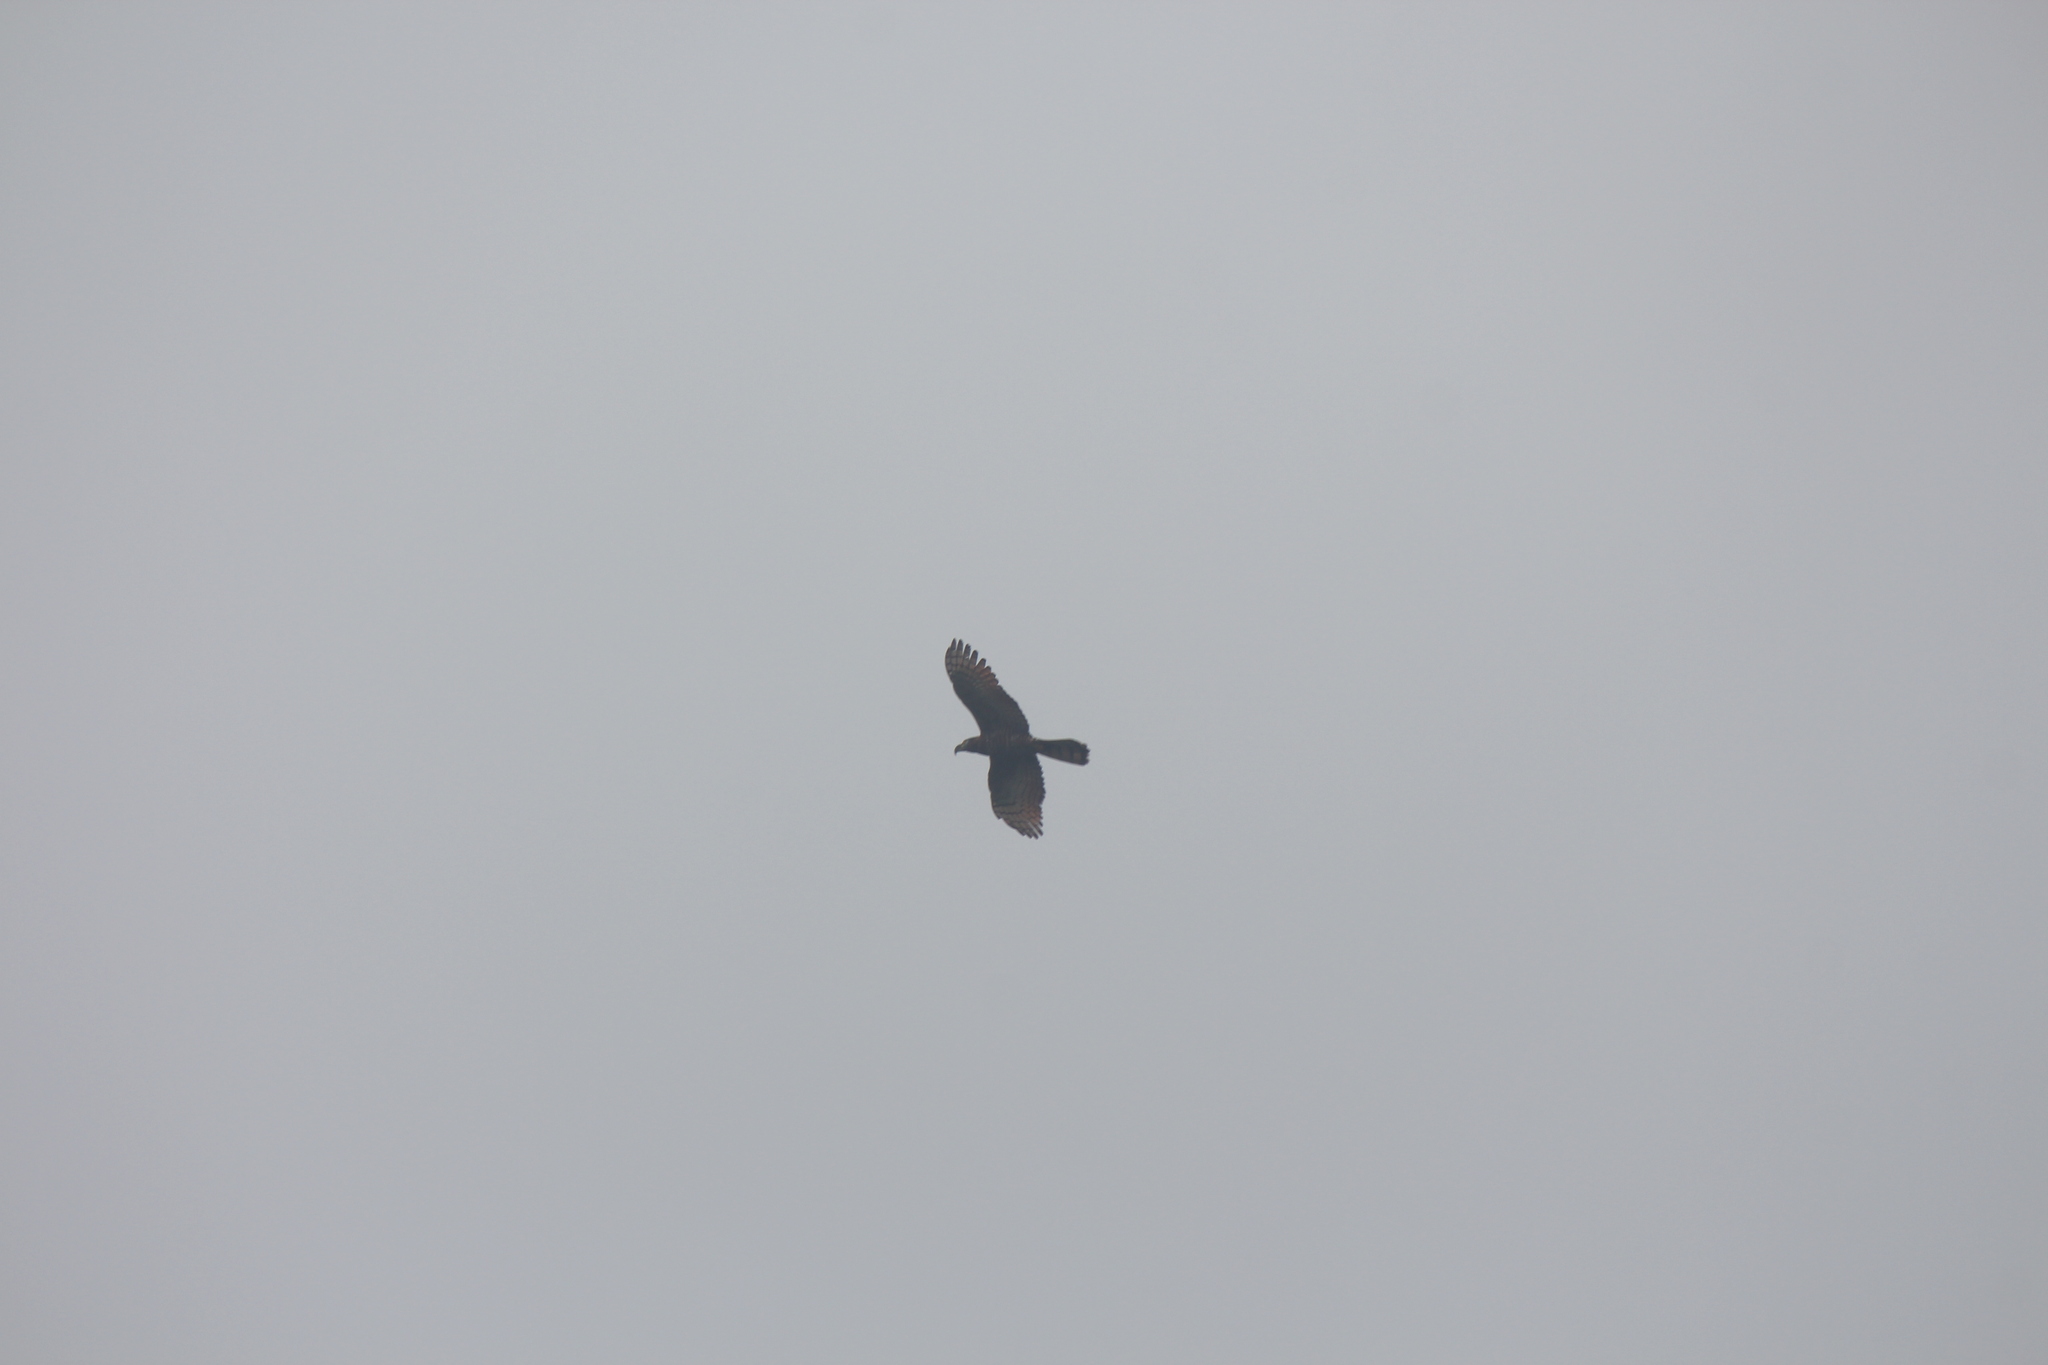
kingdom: Animalia
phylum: Chordata
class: Aves
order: Accipitriformes
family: Accipitridae
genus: Chondrohierax
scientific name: Chondrohierax uncinatus
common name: Hook-billed kite
